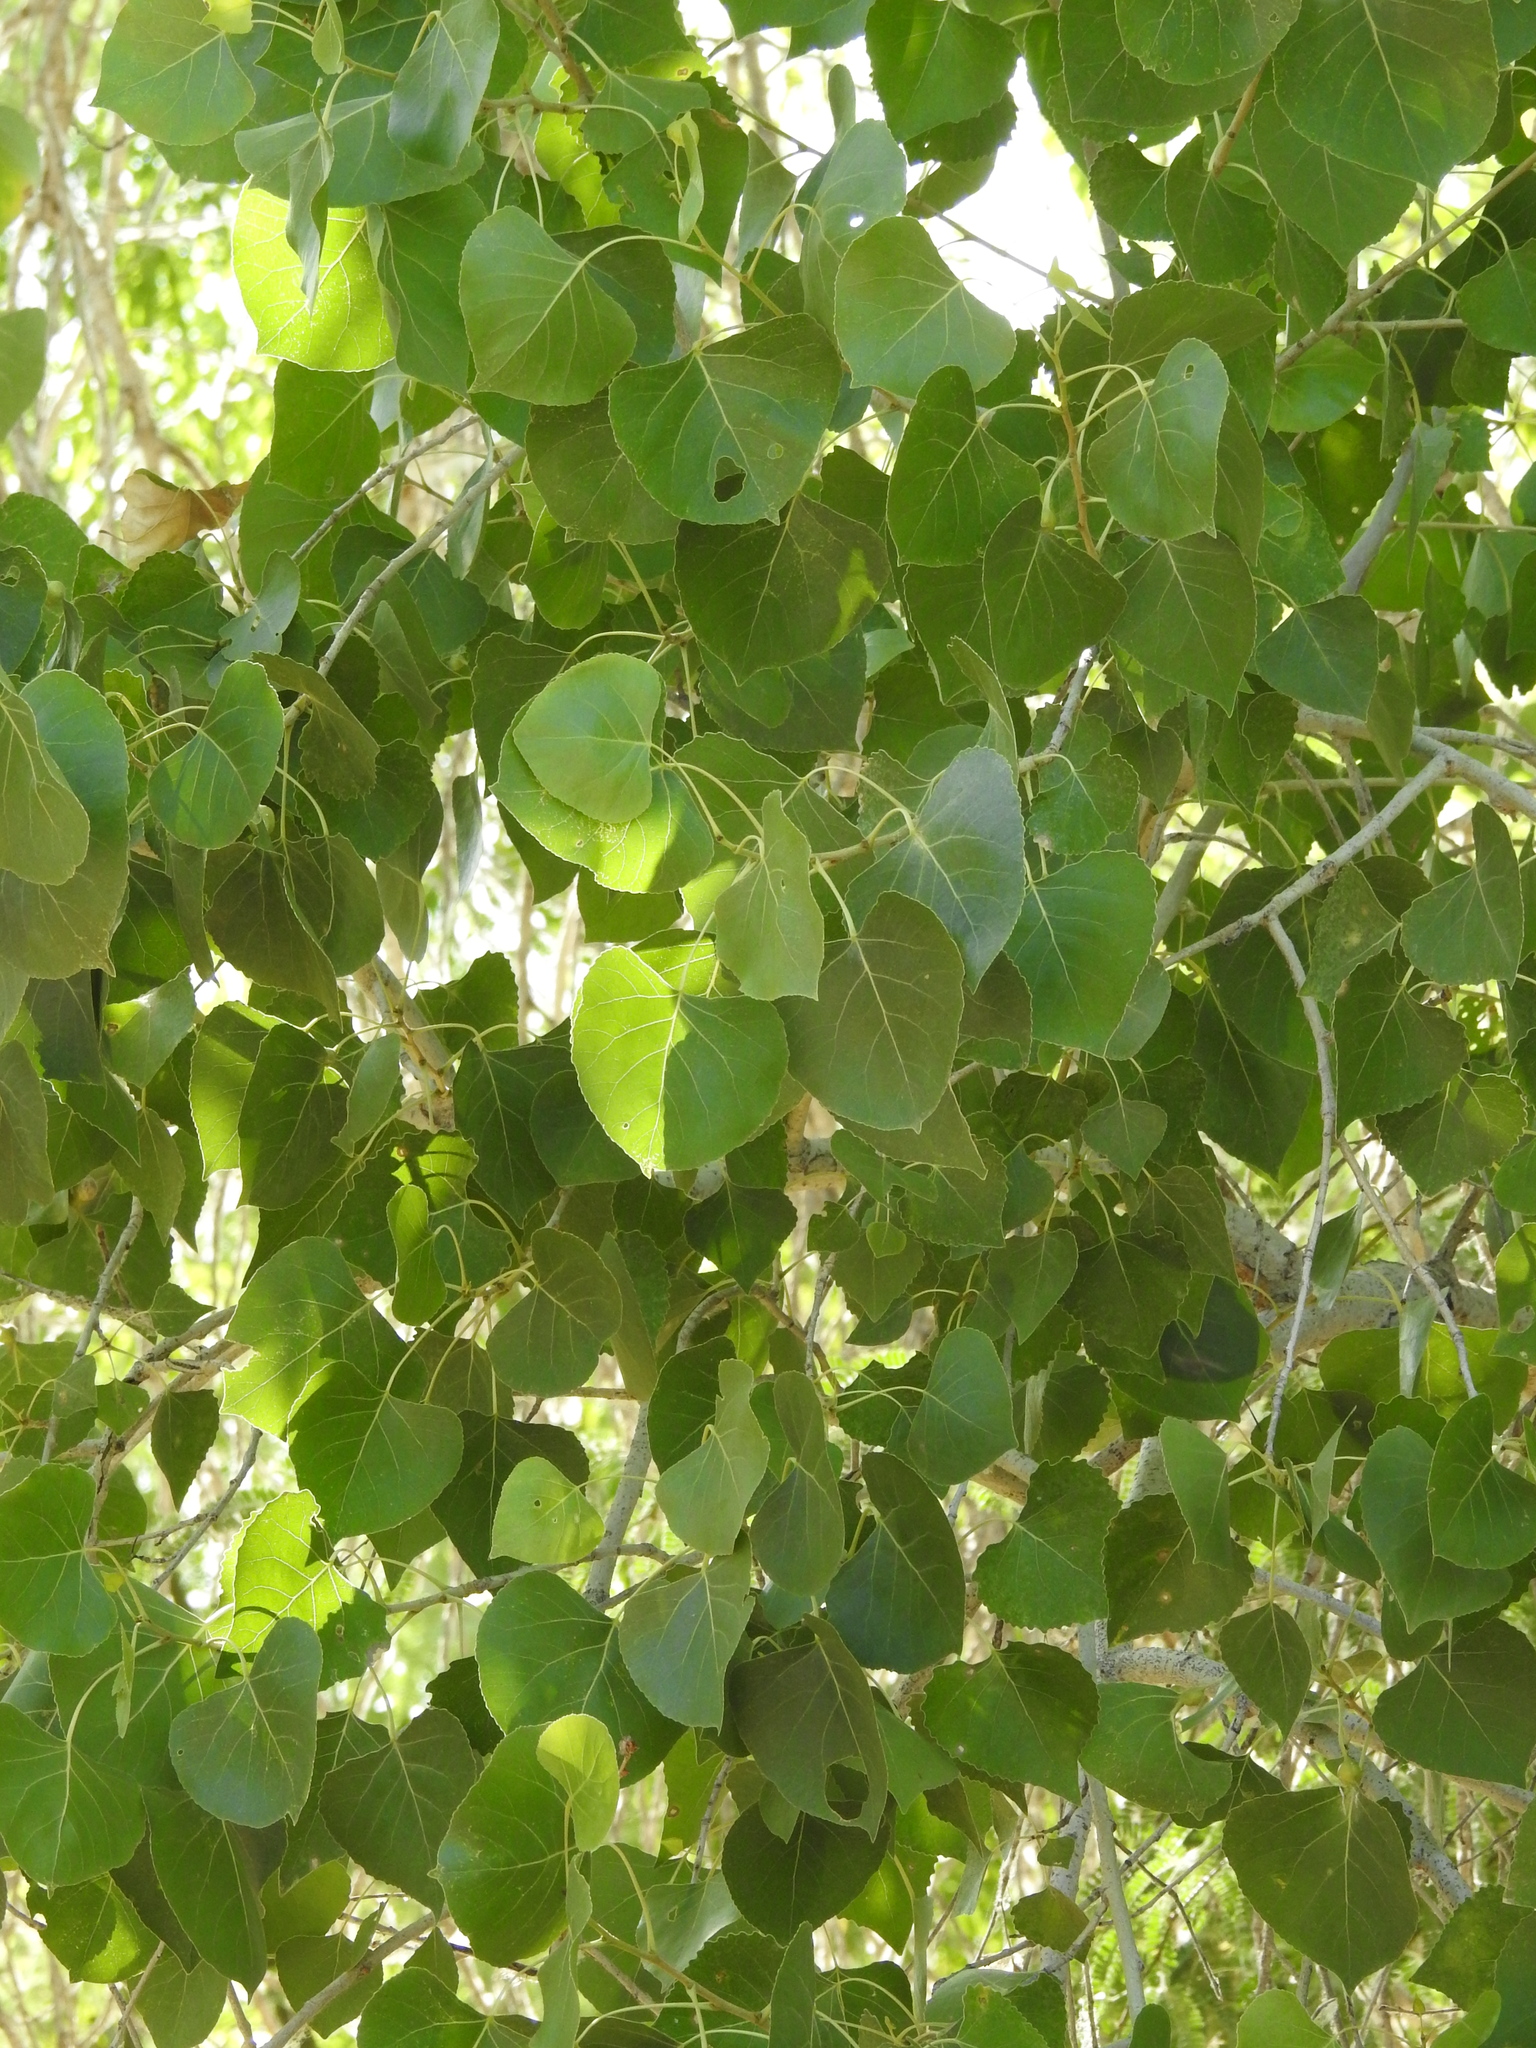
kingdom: Plantae
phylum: Tracheophyta
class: Magnoliopsida
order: Malpighiales
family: Salicaceae
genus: Populus
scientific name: Populus fremontii
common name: Fremont's cottonwood
